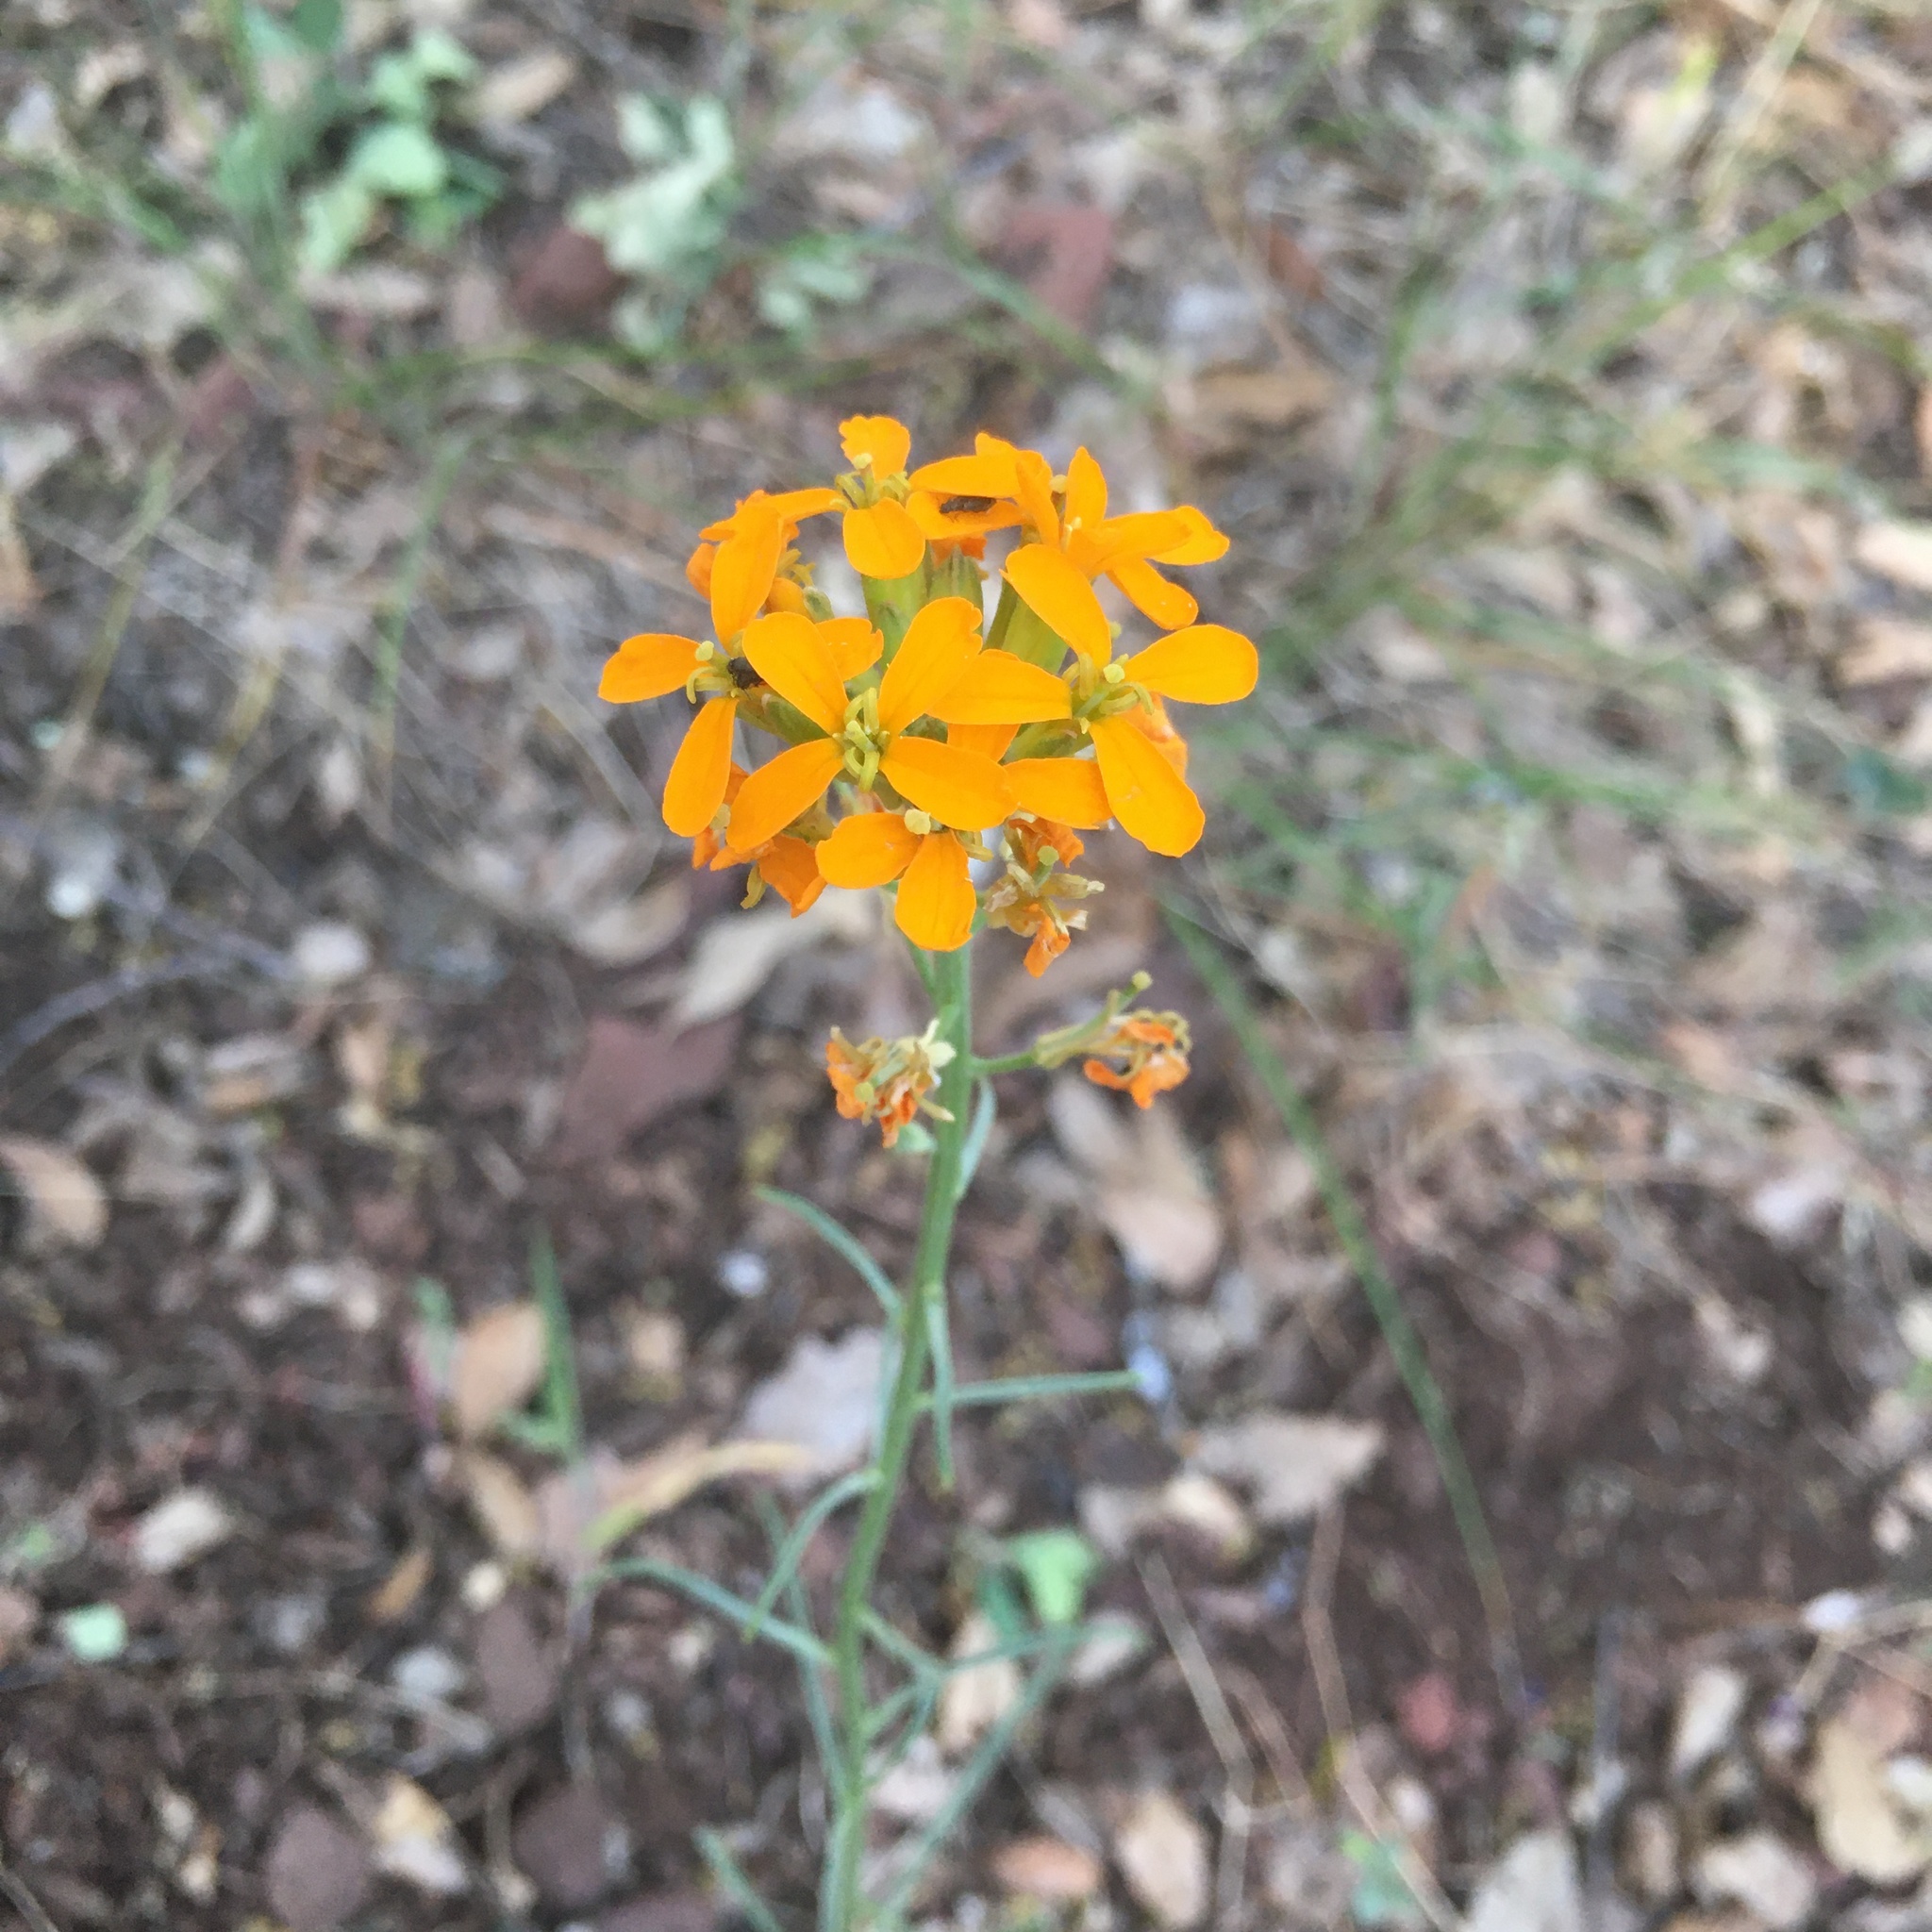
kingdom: Plantae
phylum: Tracheophyta
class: Magnoliopsida
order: Brassicales
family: Brassicaceae
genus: Erysimum
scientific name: Erysimum capitatum
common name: Western wallflower
